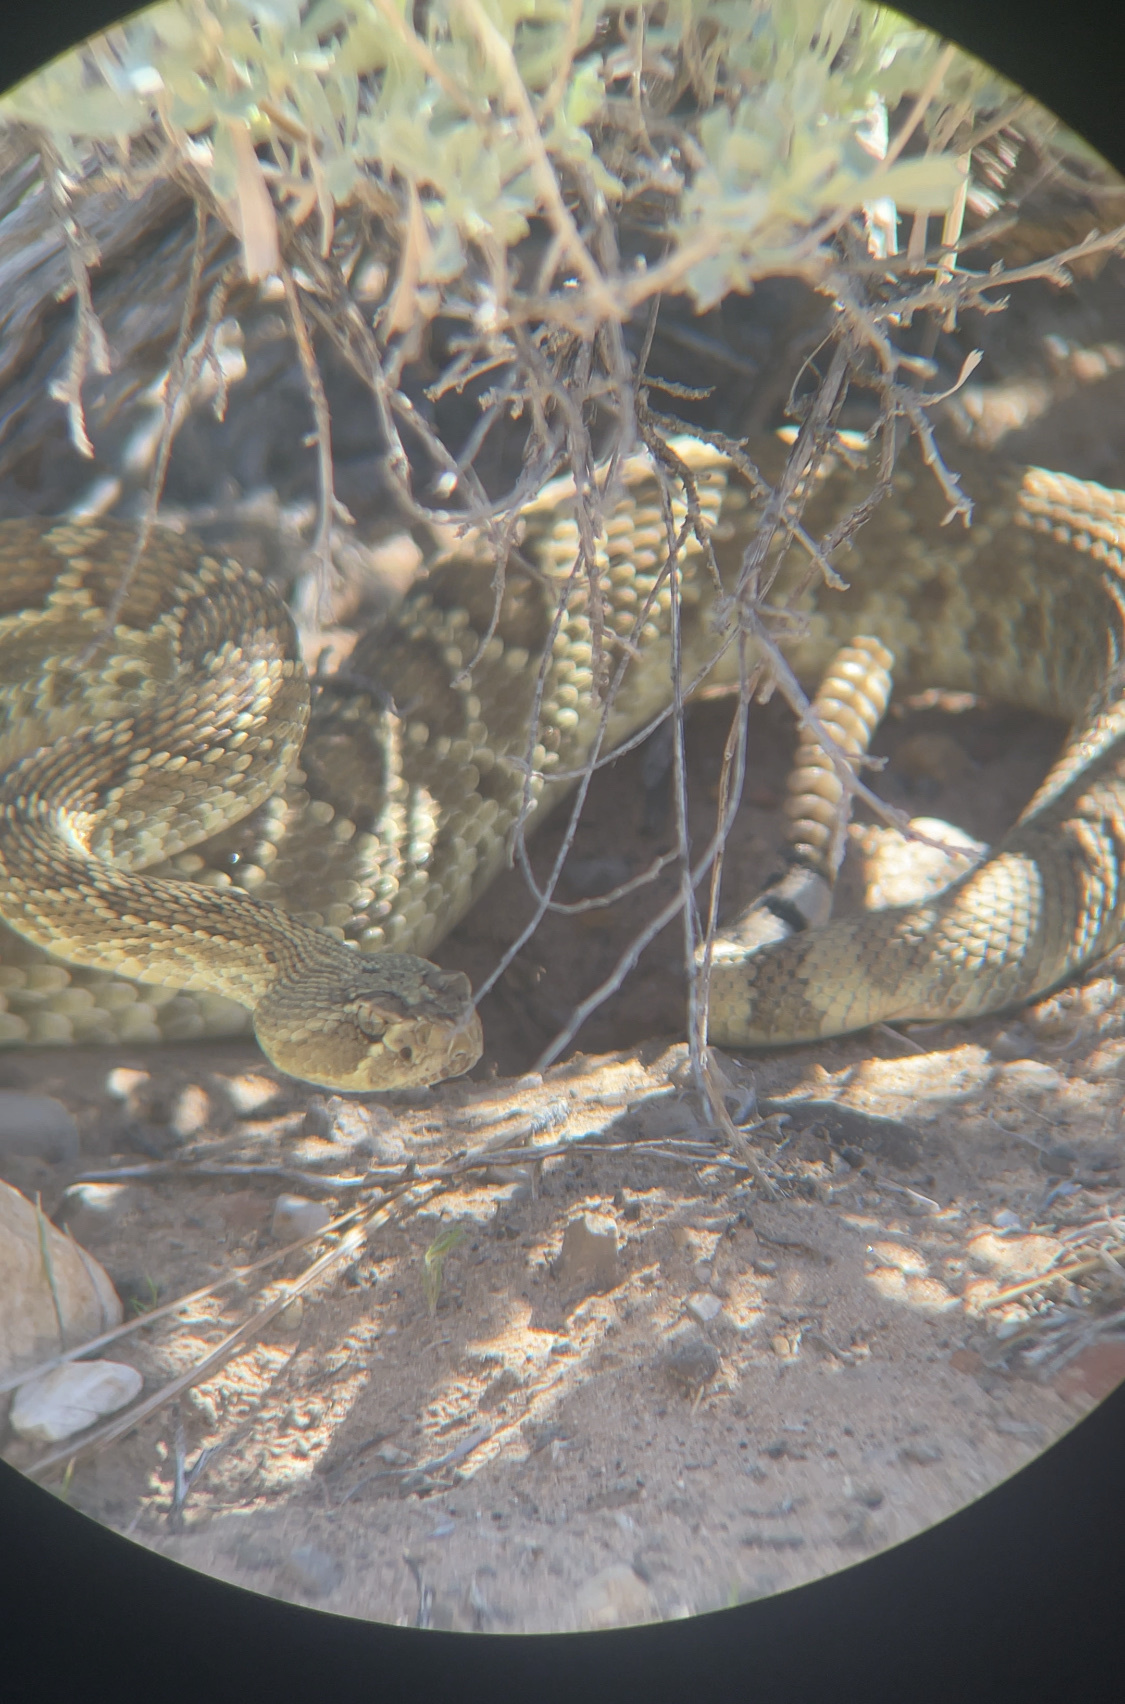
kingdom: Animalia
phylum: Chordata
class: Squamata
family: Viperidae
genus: Crotalus
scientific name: Crotalus scutulatus
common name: Scutulatus
